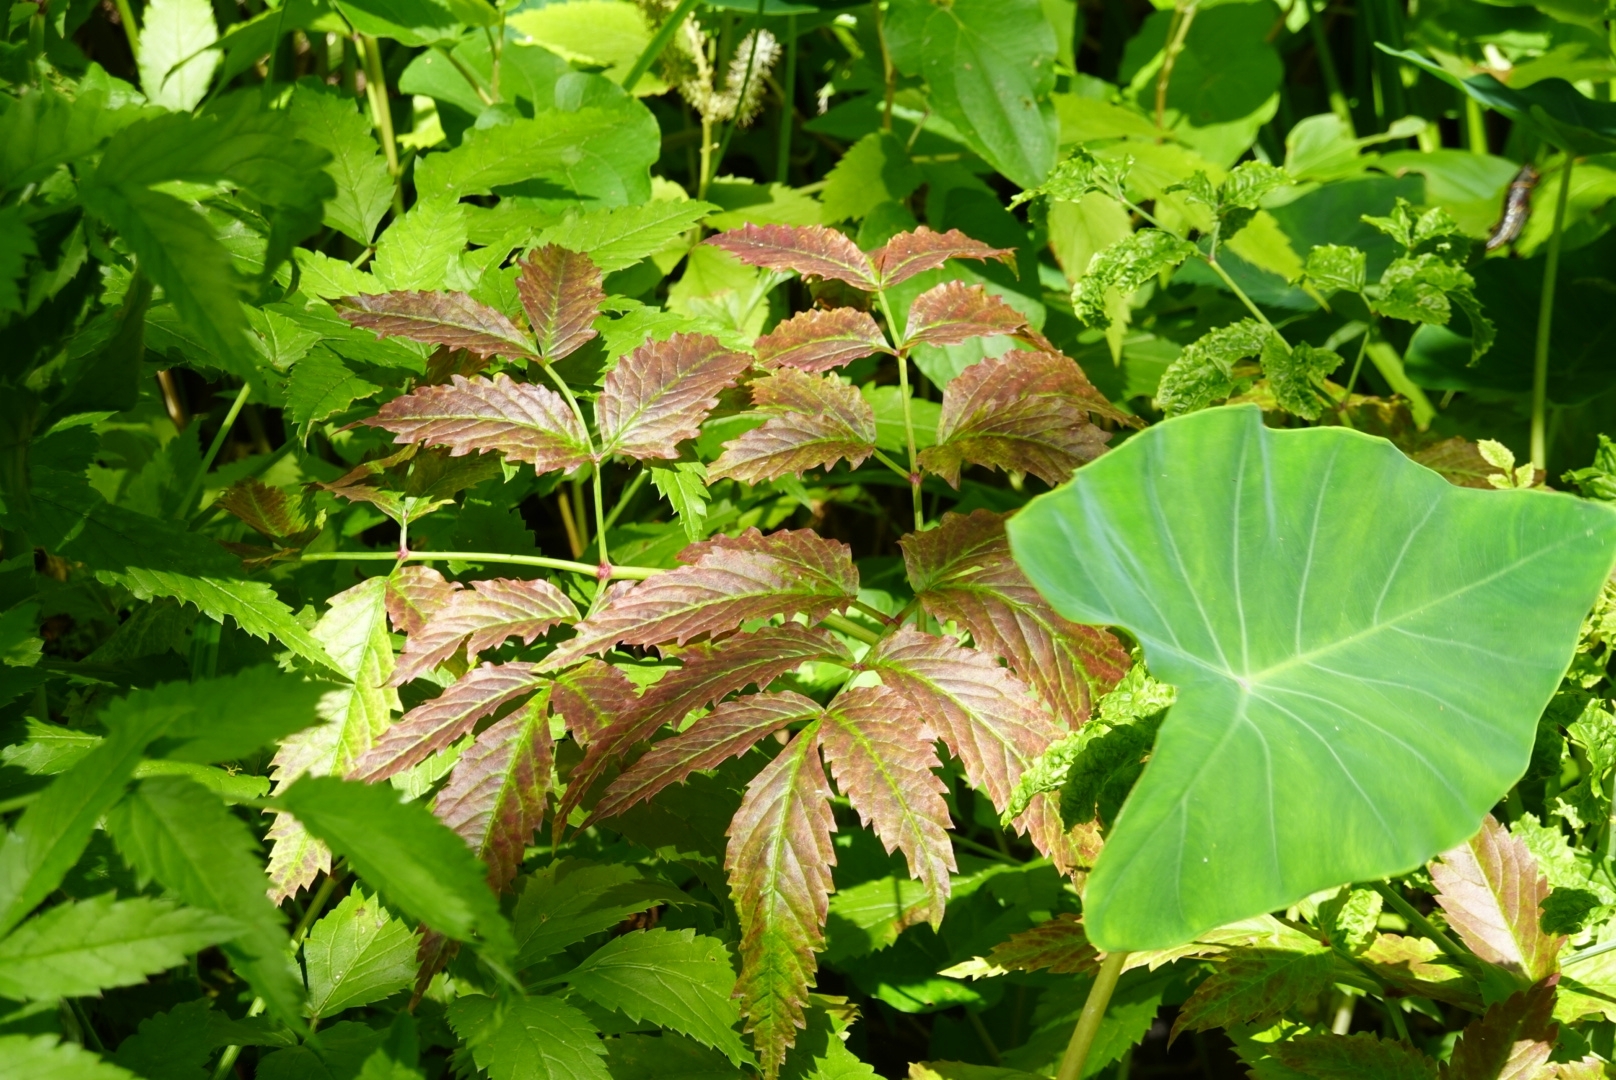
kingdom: Plantae
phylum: Tracheophyta
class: Magnoliopsida
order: Apiales
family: Apiaceae
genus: Cicuta
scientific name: Cicuta maculata
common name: Spotted cowbane
